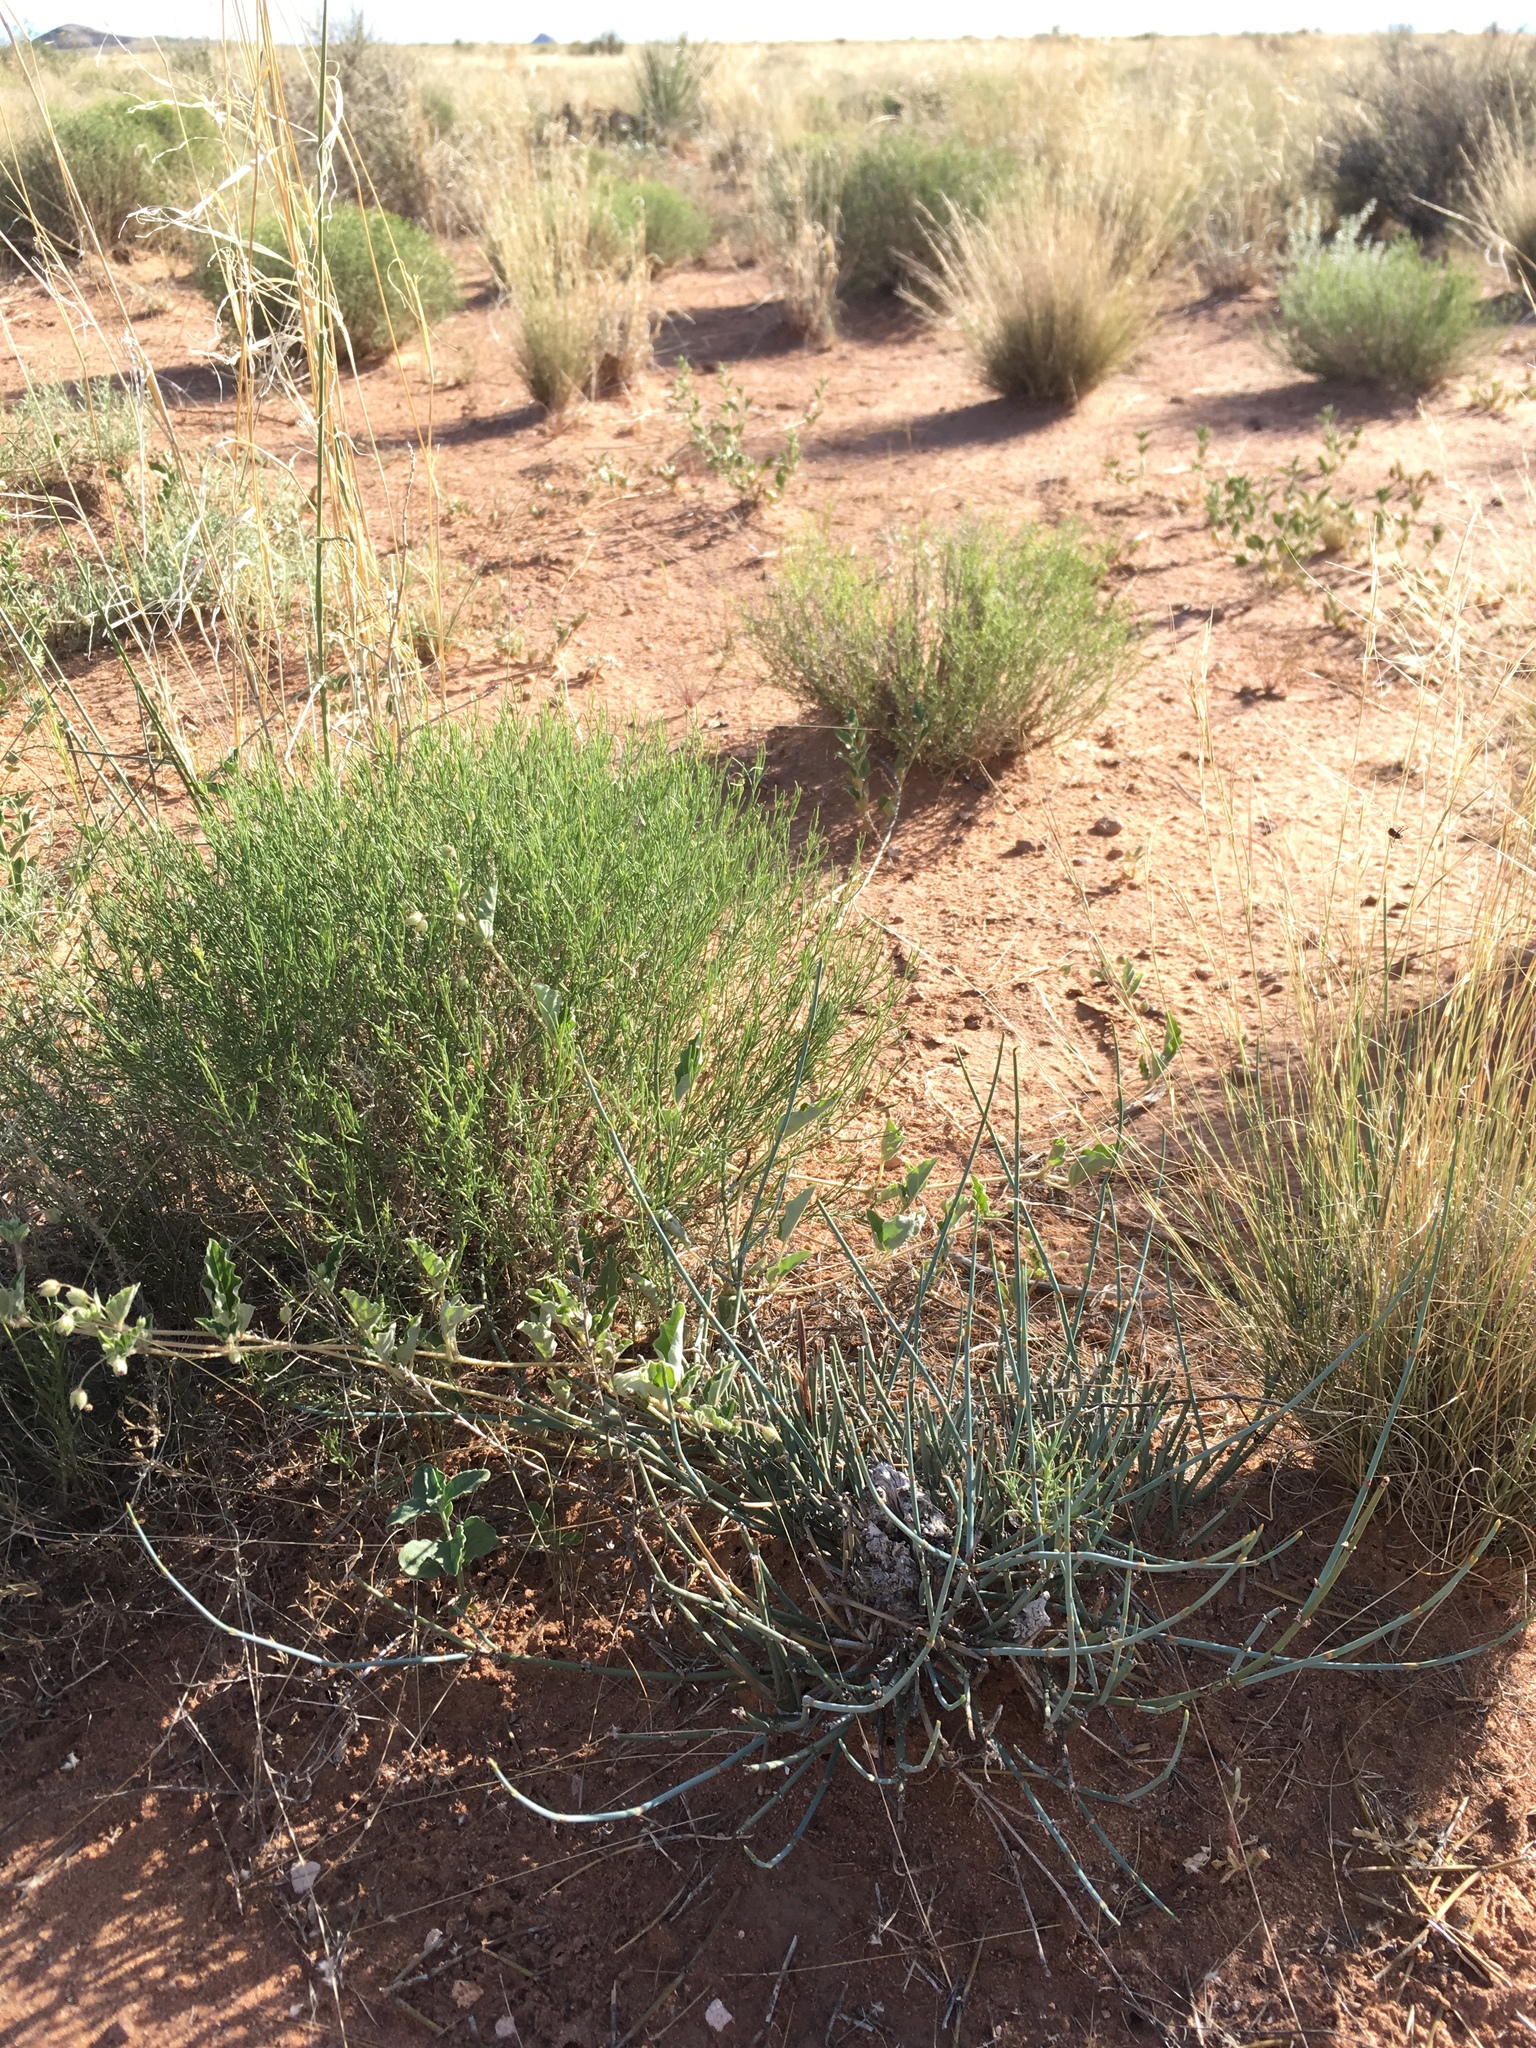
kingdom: Plantae
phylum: Tracheophyta
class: Gnetopsida
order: Ephedrales
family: Ephedraceae
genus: Ephedra
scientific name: Ephedra torreyana
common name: Torrey ephedra
